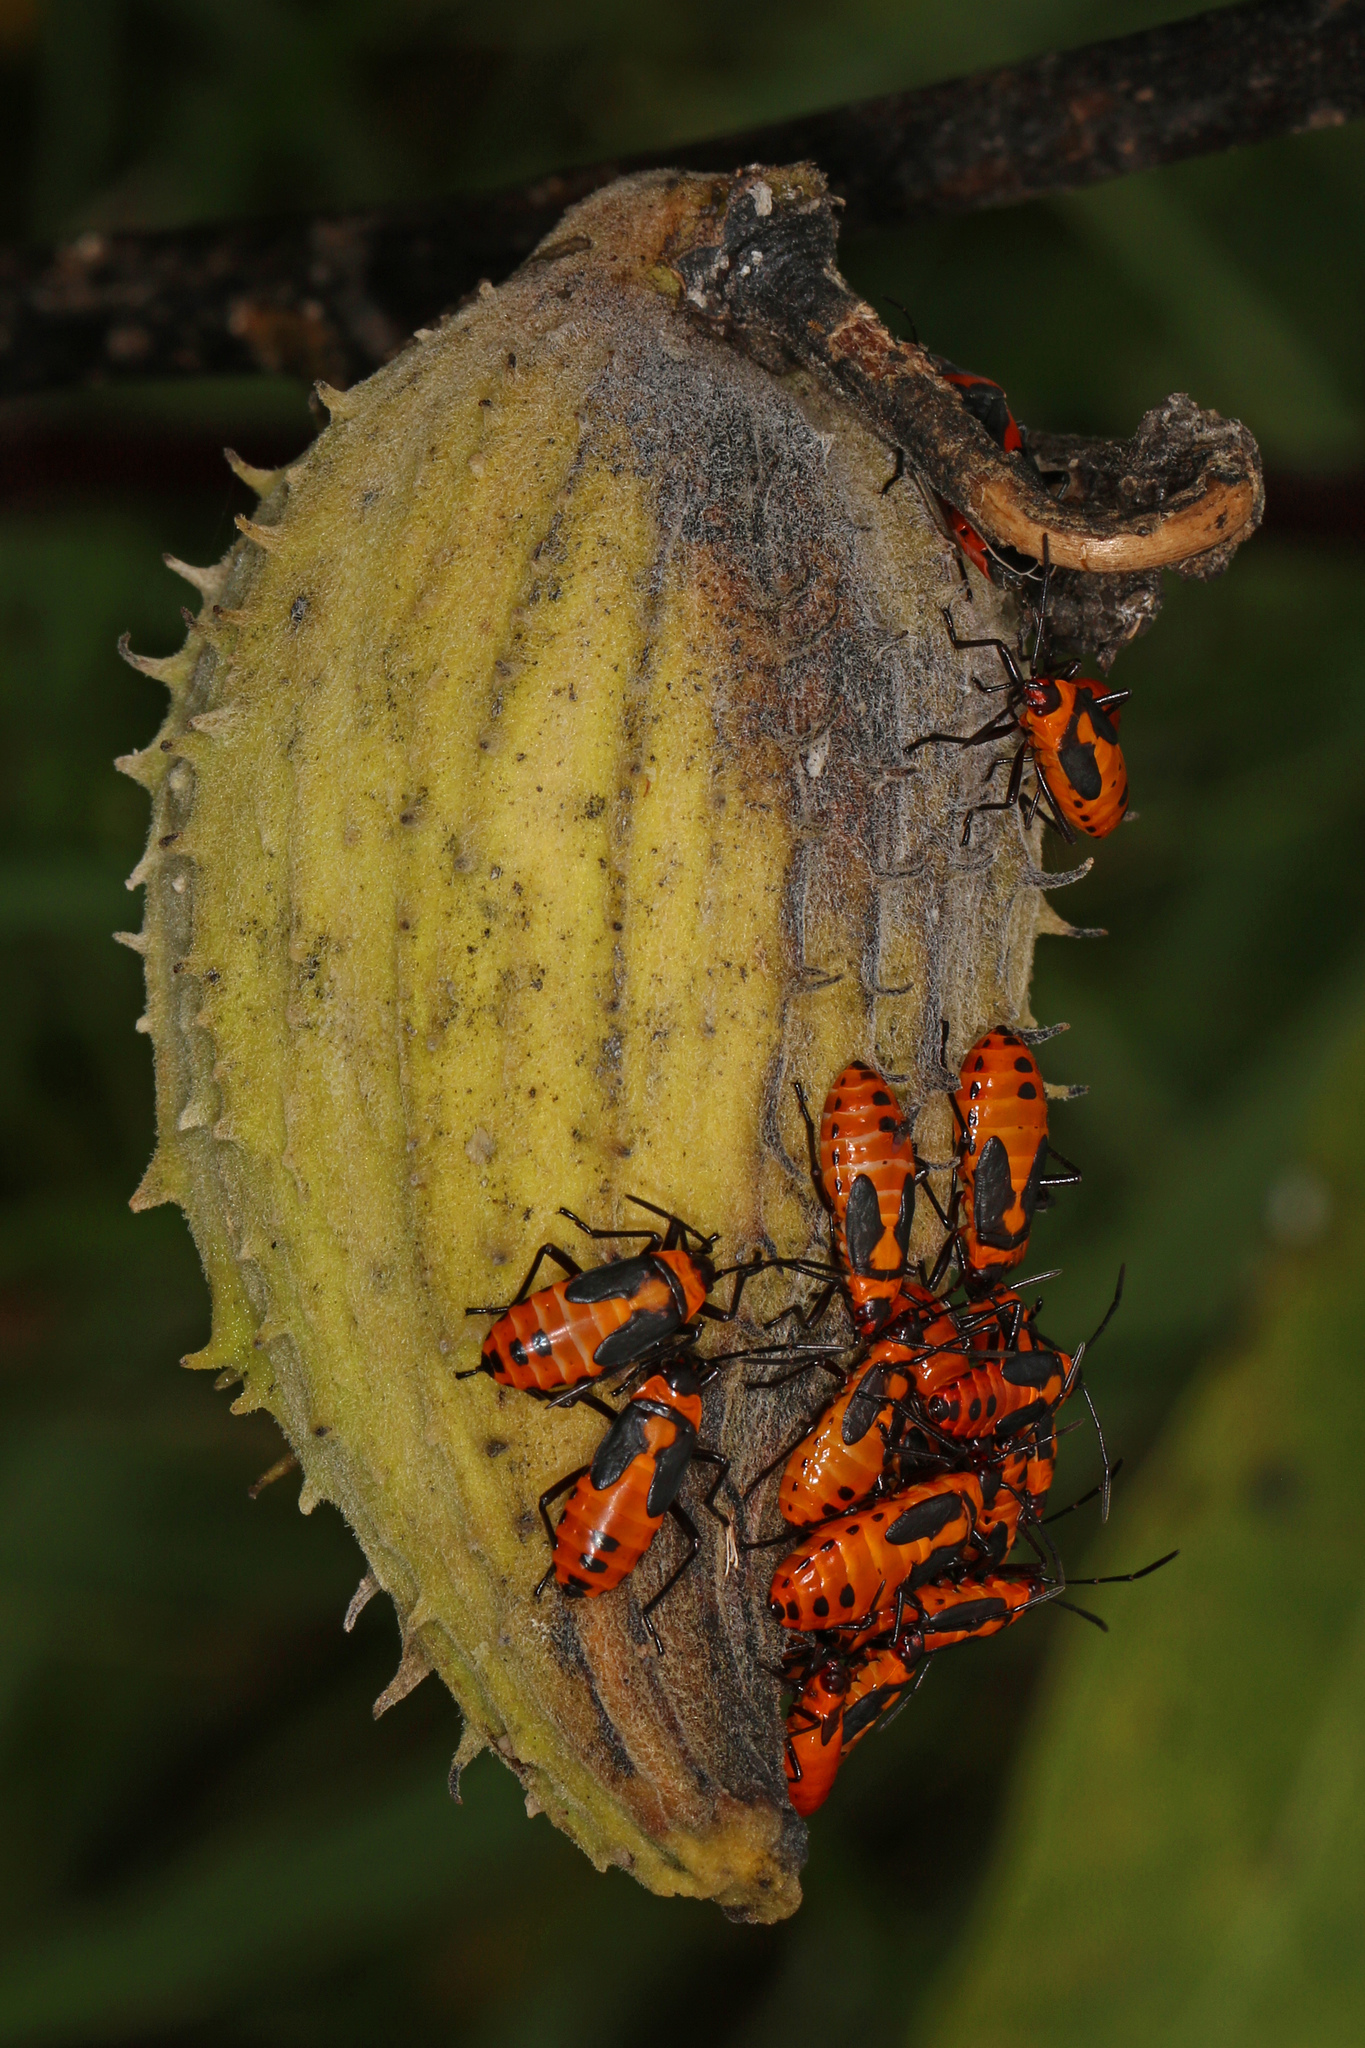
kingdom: Animalia
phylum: Arthropoda
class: Insecta
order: Hemiptera
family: Lygaeidae
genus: Oncopeltus
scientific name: Oncopeltus fasciatus
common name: Large milkweed bug
